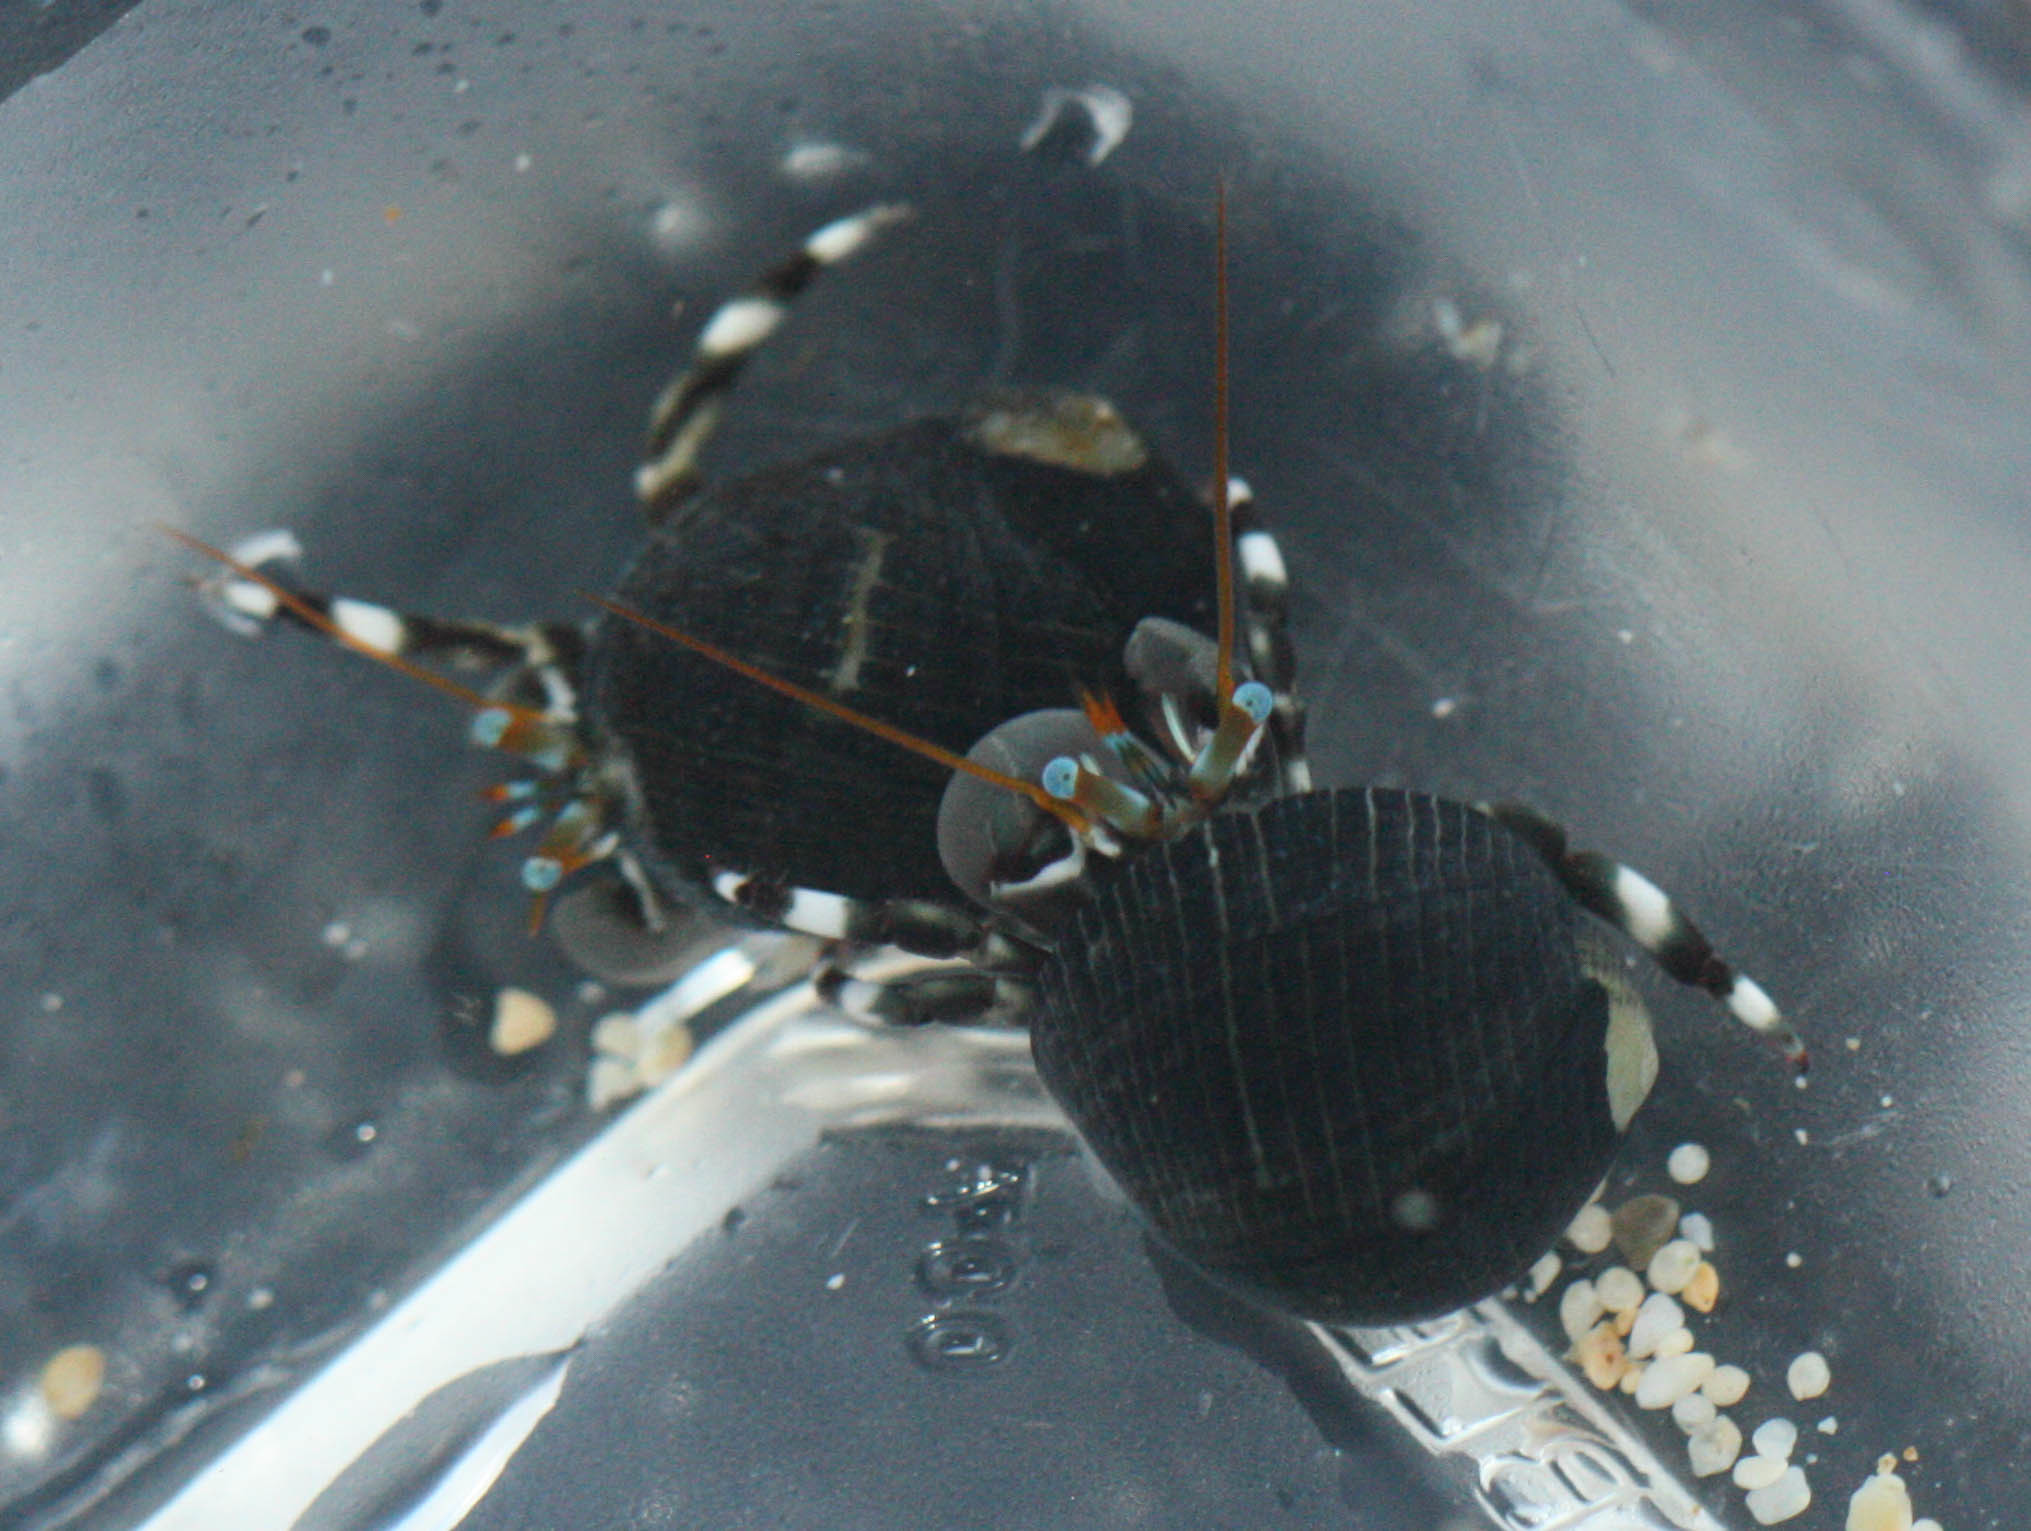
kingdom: Animalia
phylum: Arthropoda
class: Malacostraca
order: Decapoda
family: Diogenidae
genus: Calcinus
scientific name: Calcinus seurati
